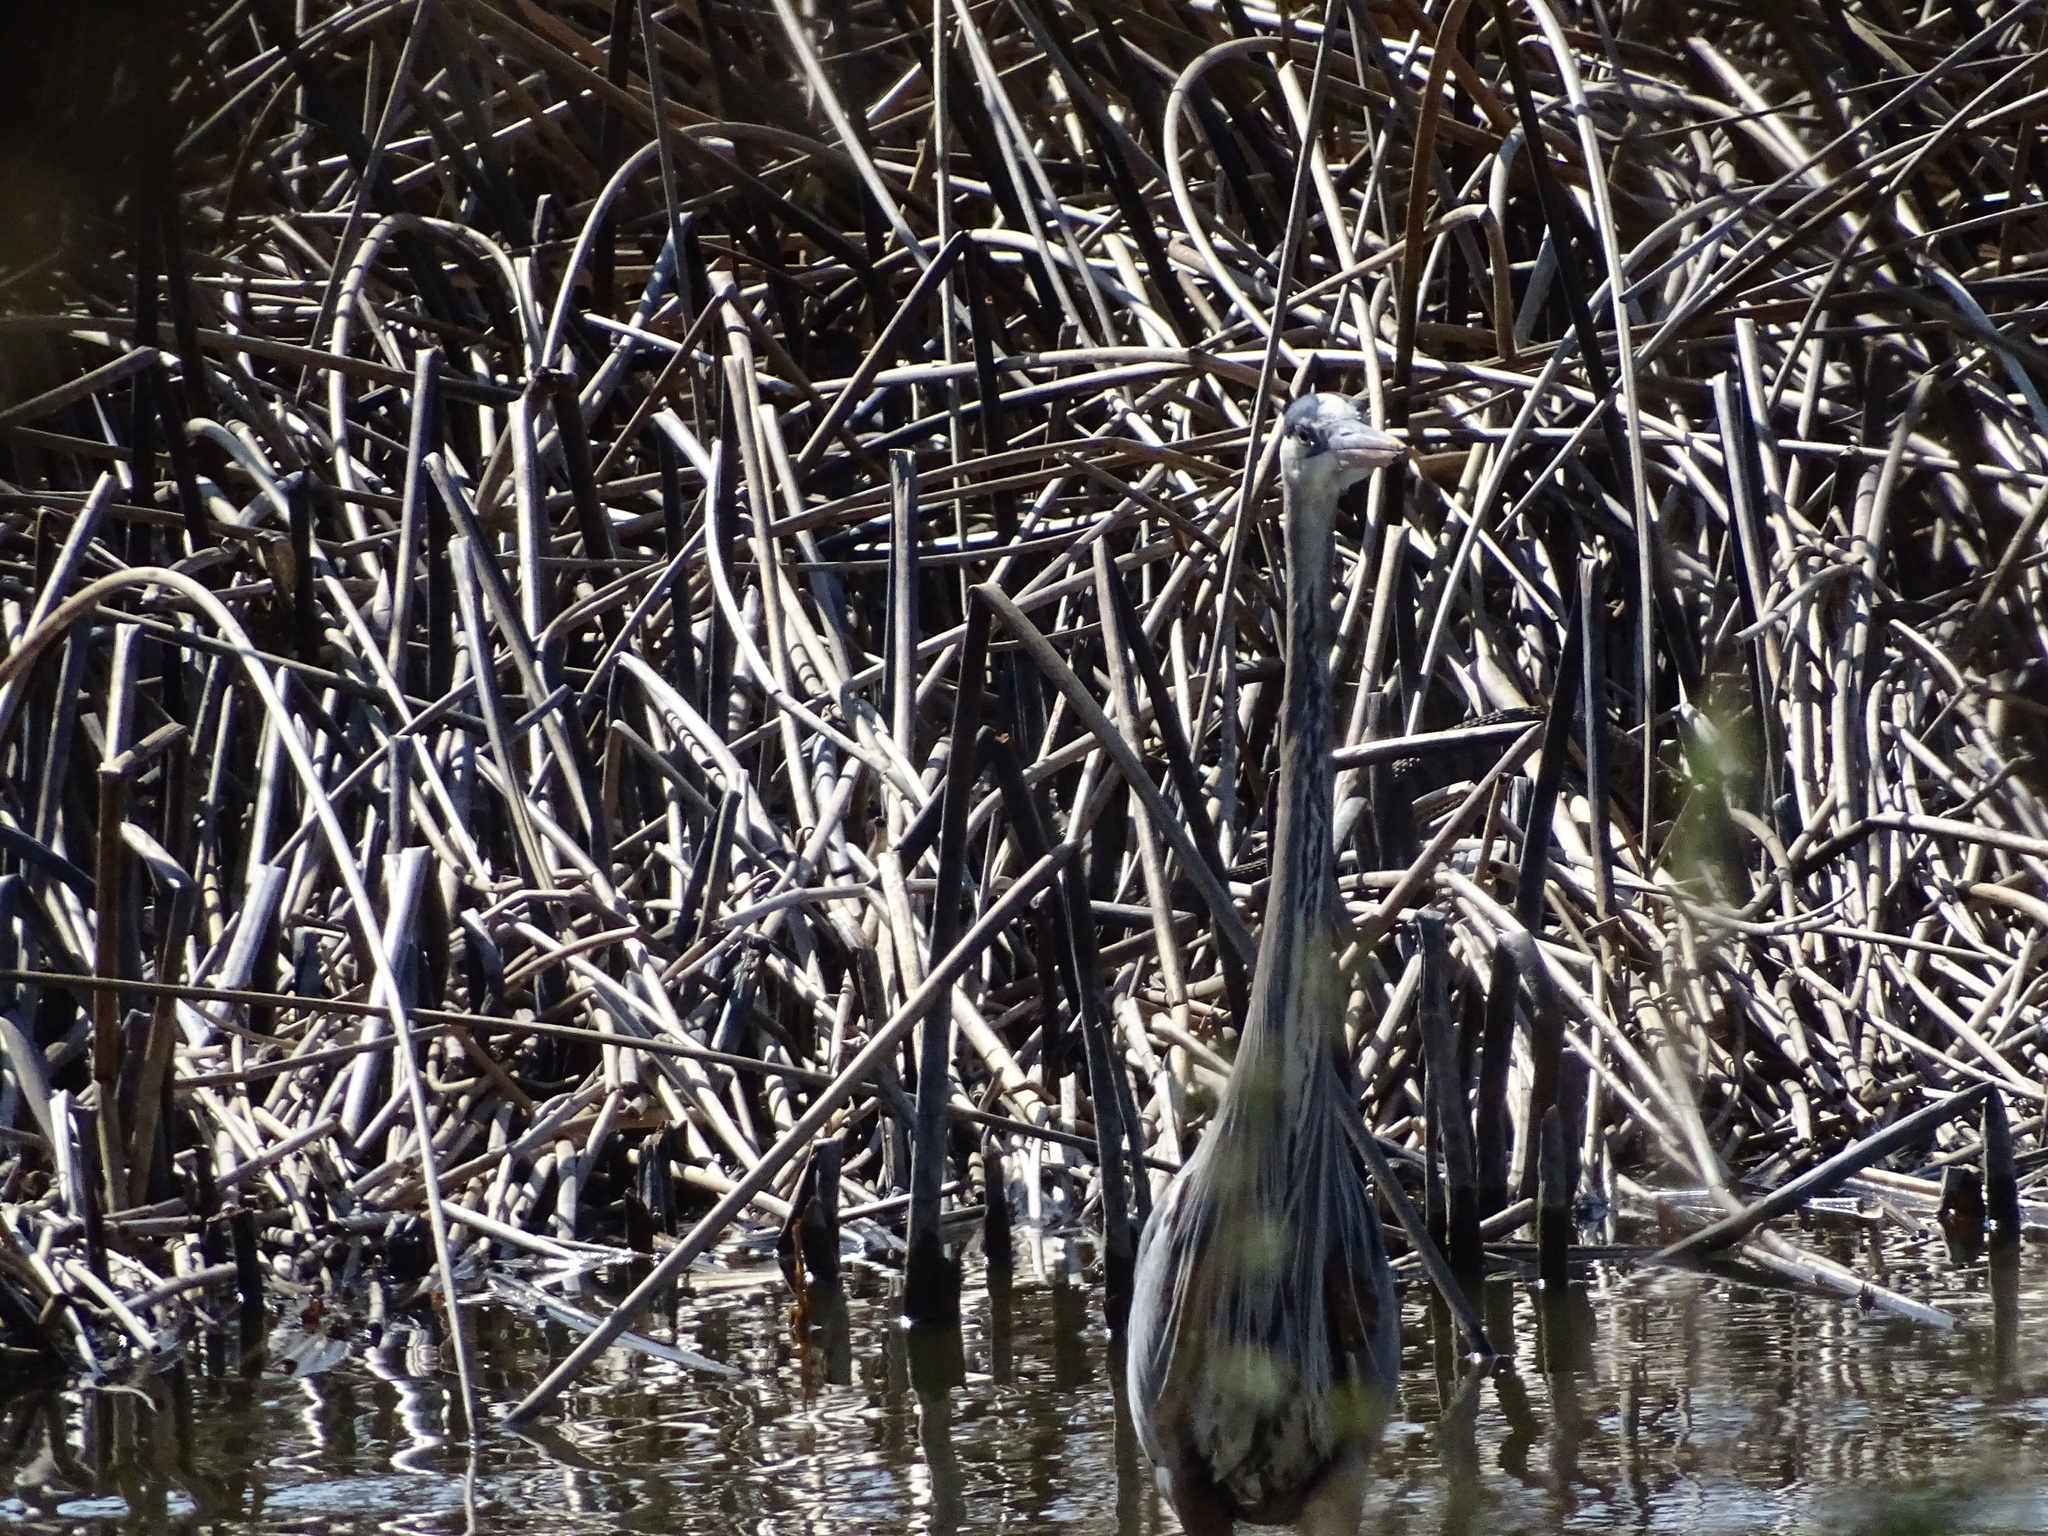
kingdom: Animalia
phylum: Chordata
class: Aves
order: Pelecaniformes
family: Ardeidae
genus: Ardea
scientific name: Ardea herodias
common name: Great blue heron
